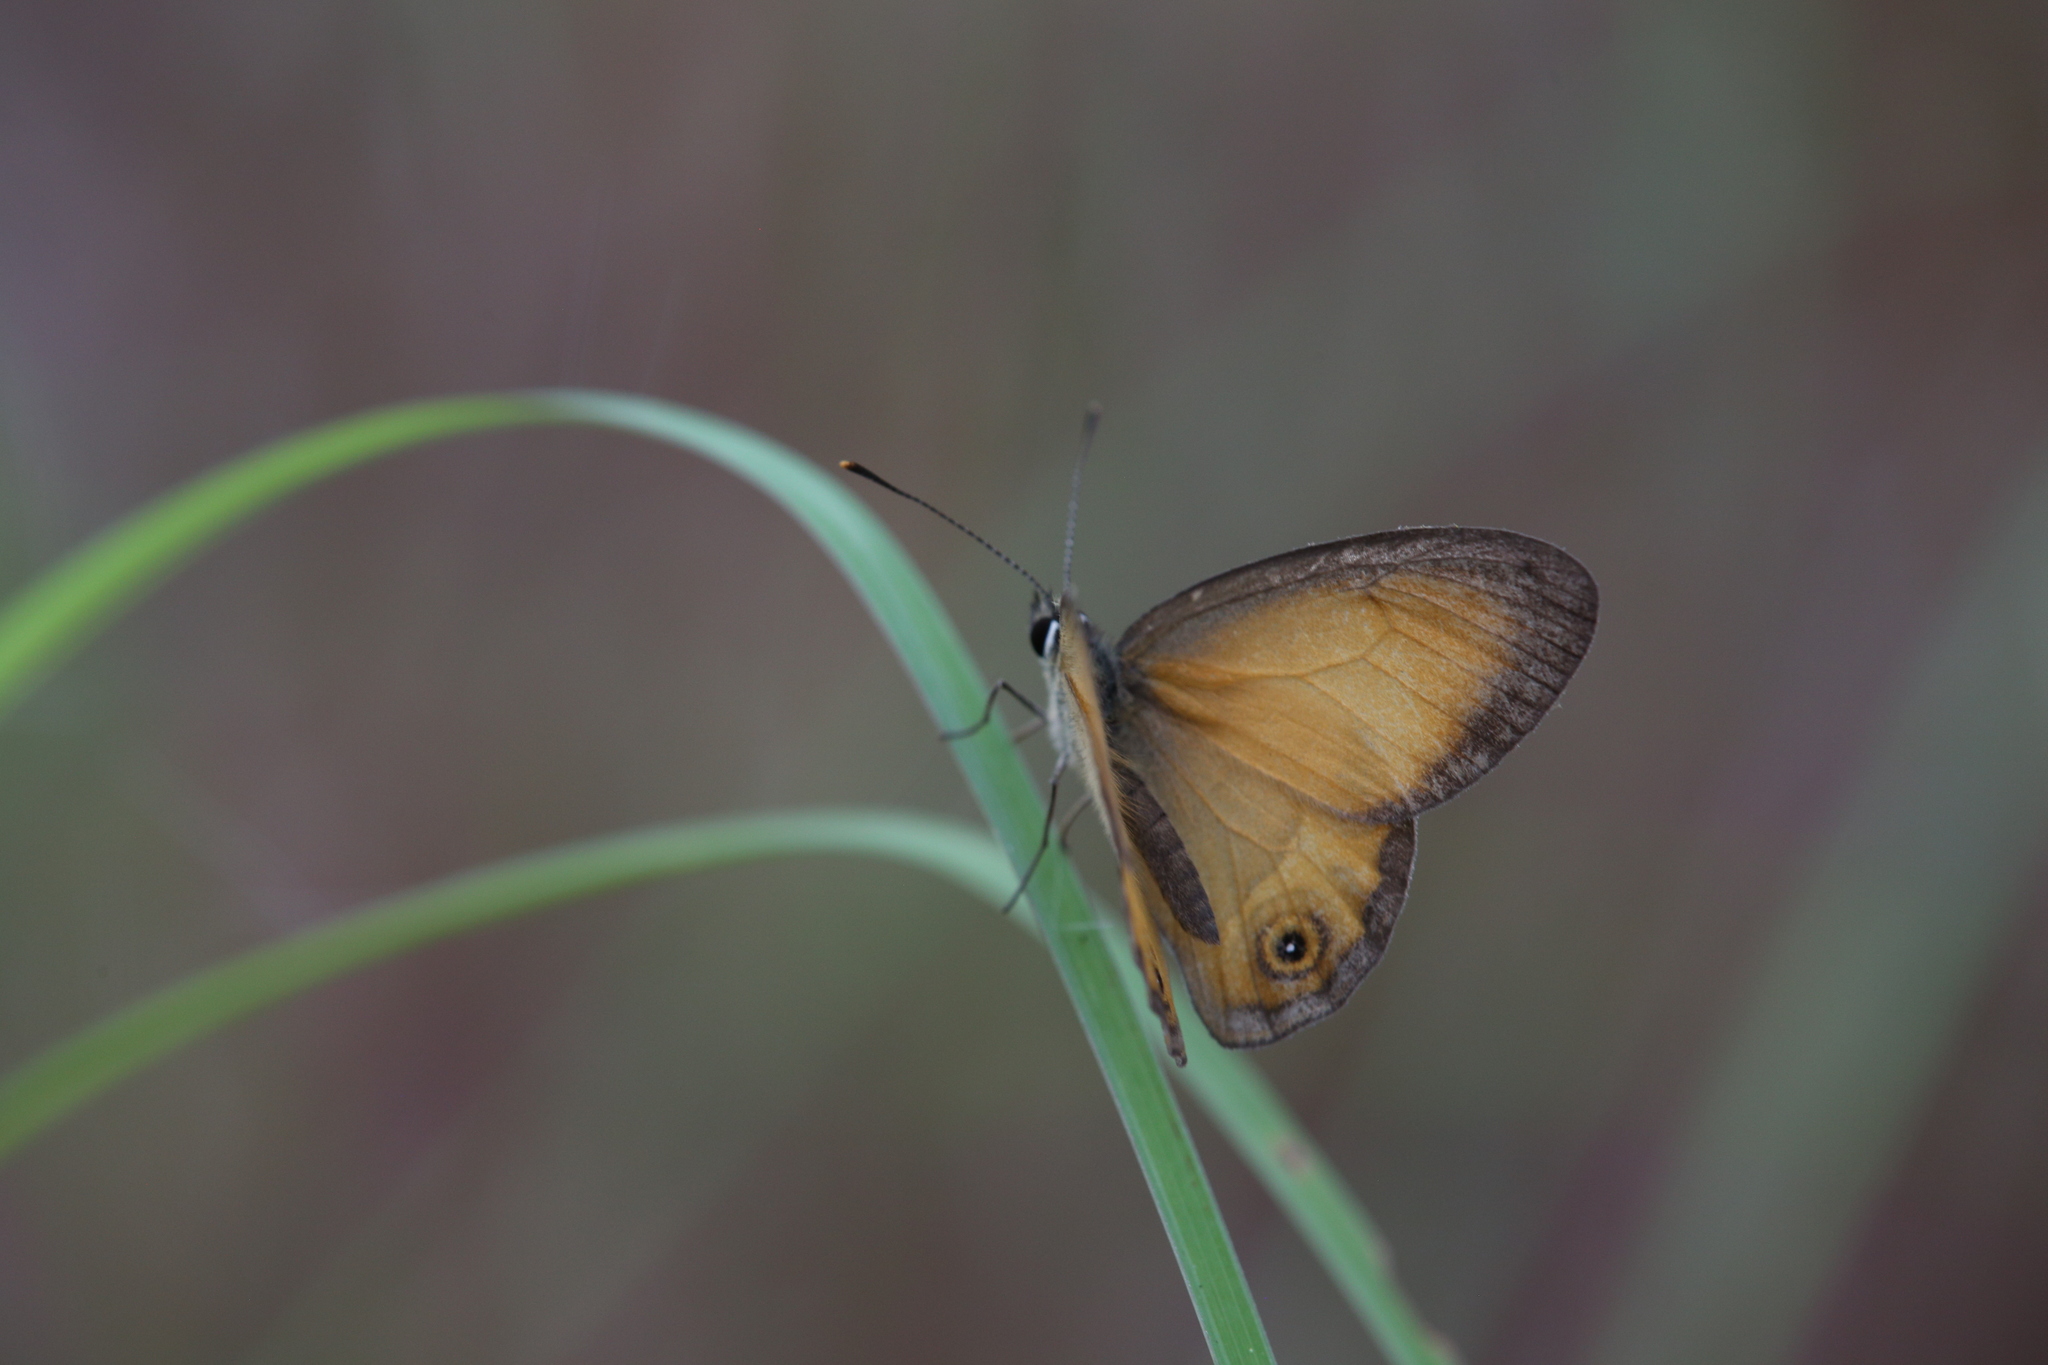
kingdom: Animalia
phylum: Arthropoda
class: Insecta
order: Lepidoptera
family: Nymphalidae
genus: Hypocysta
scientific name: Hypocysta adiante
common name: Orange ringlet
